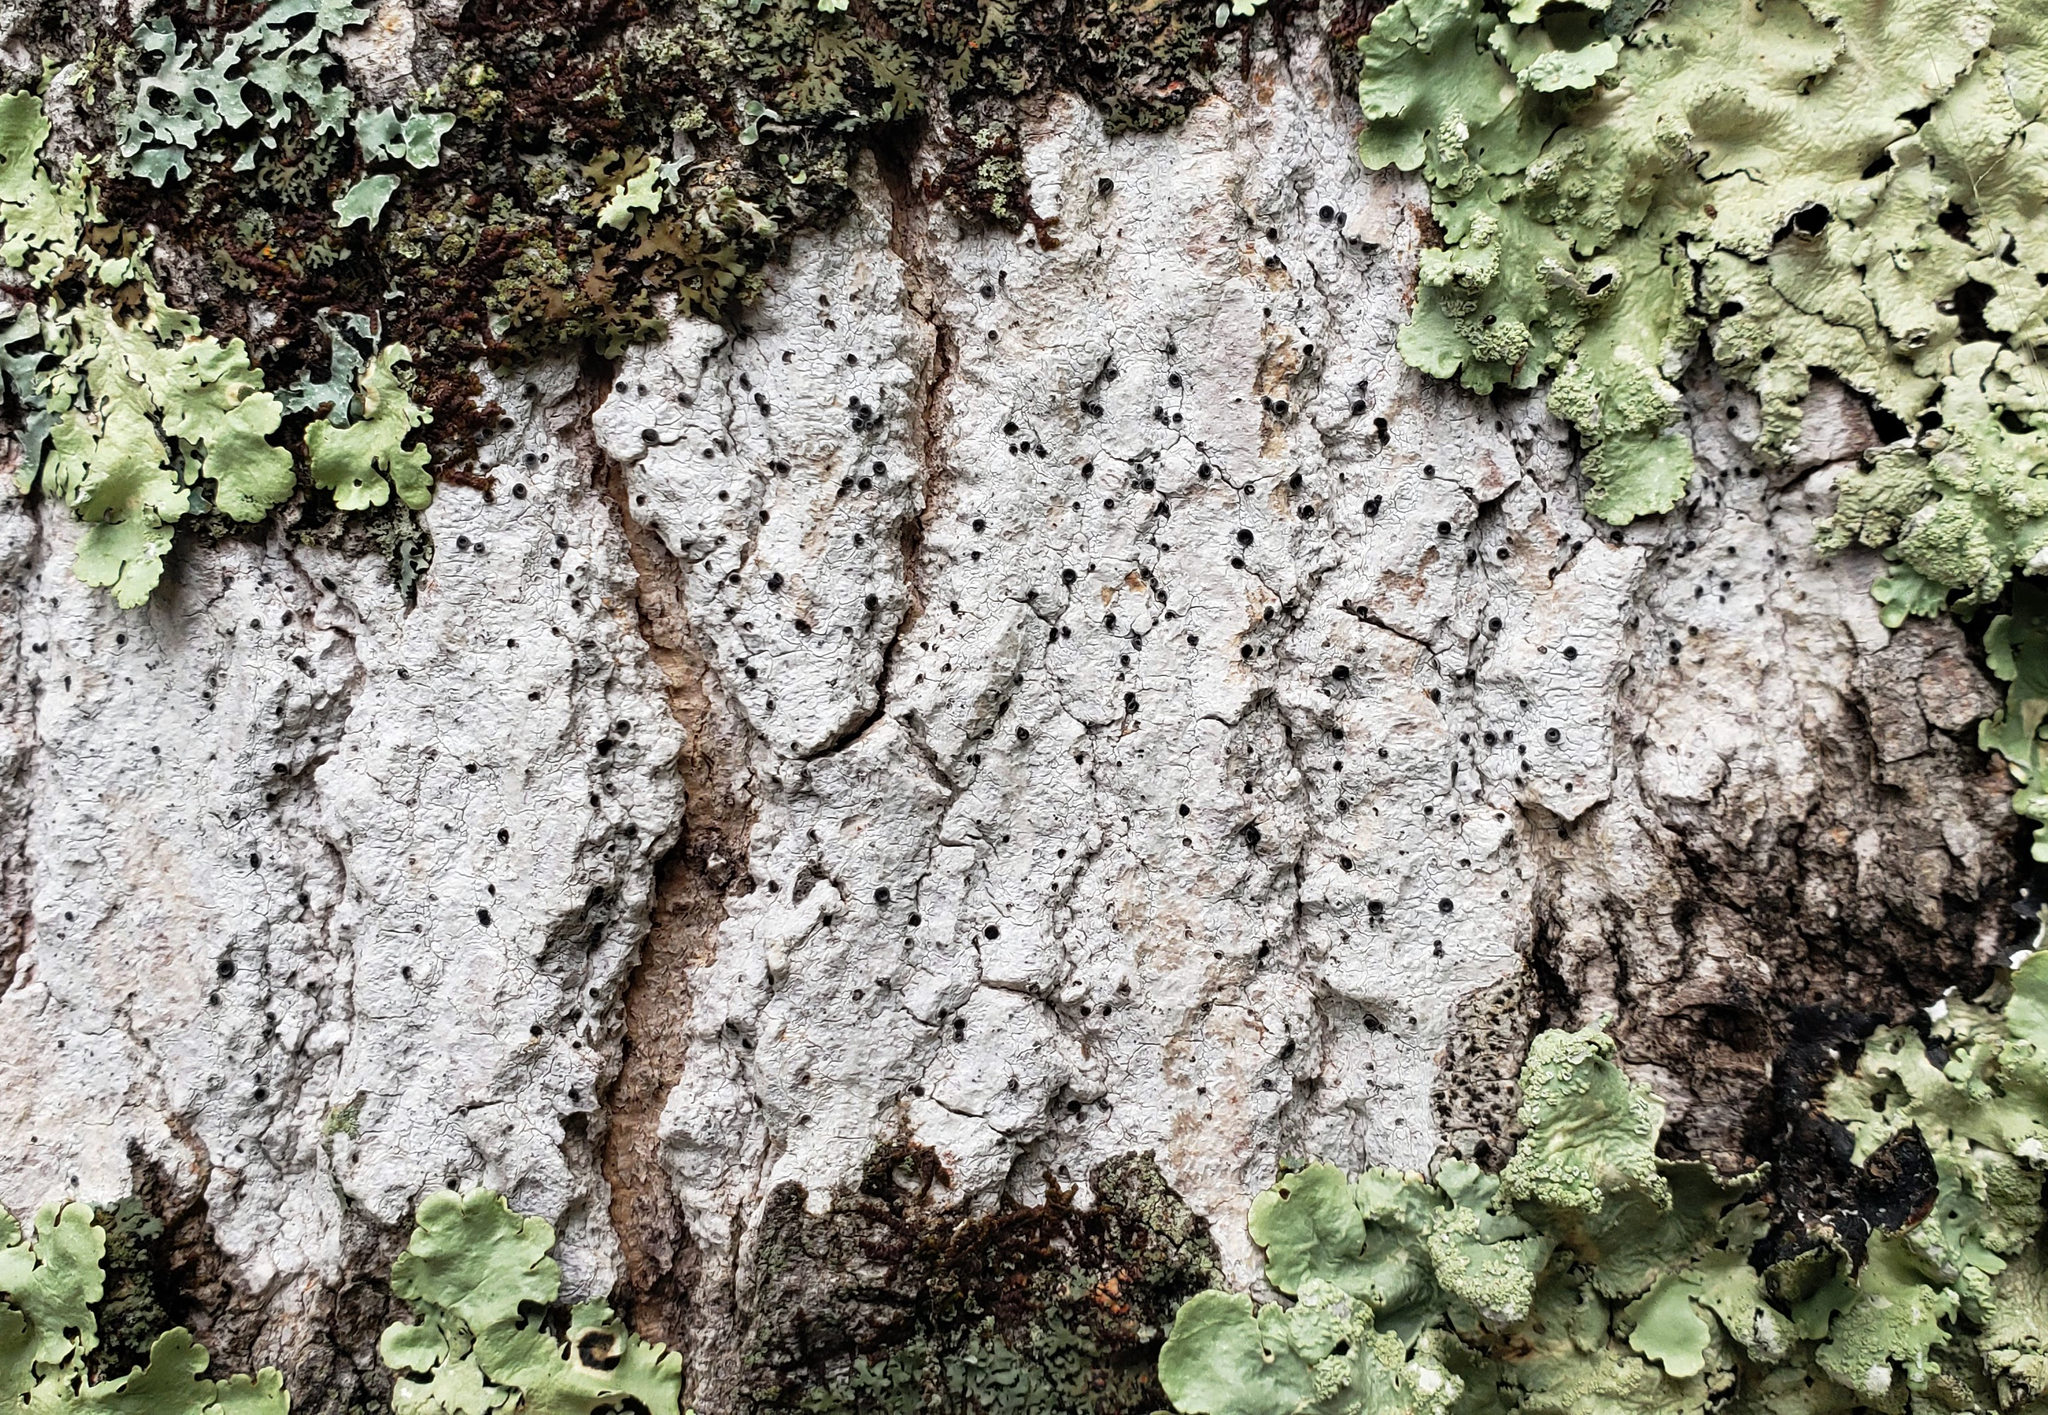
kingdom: Fungi
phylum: Ascomycota
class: Lecanoromycetes
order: Ostropales
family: Stictidaceae
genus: Stictis
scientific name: Stictis urceolata
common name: Can-of-worms lichen
